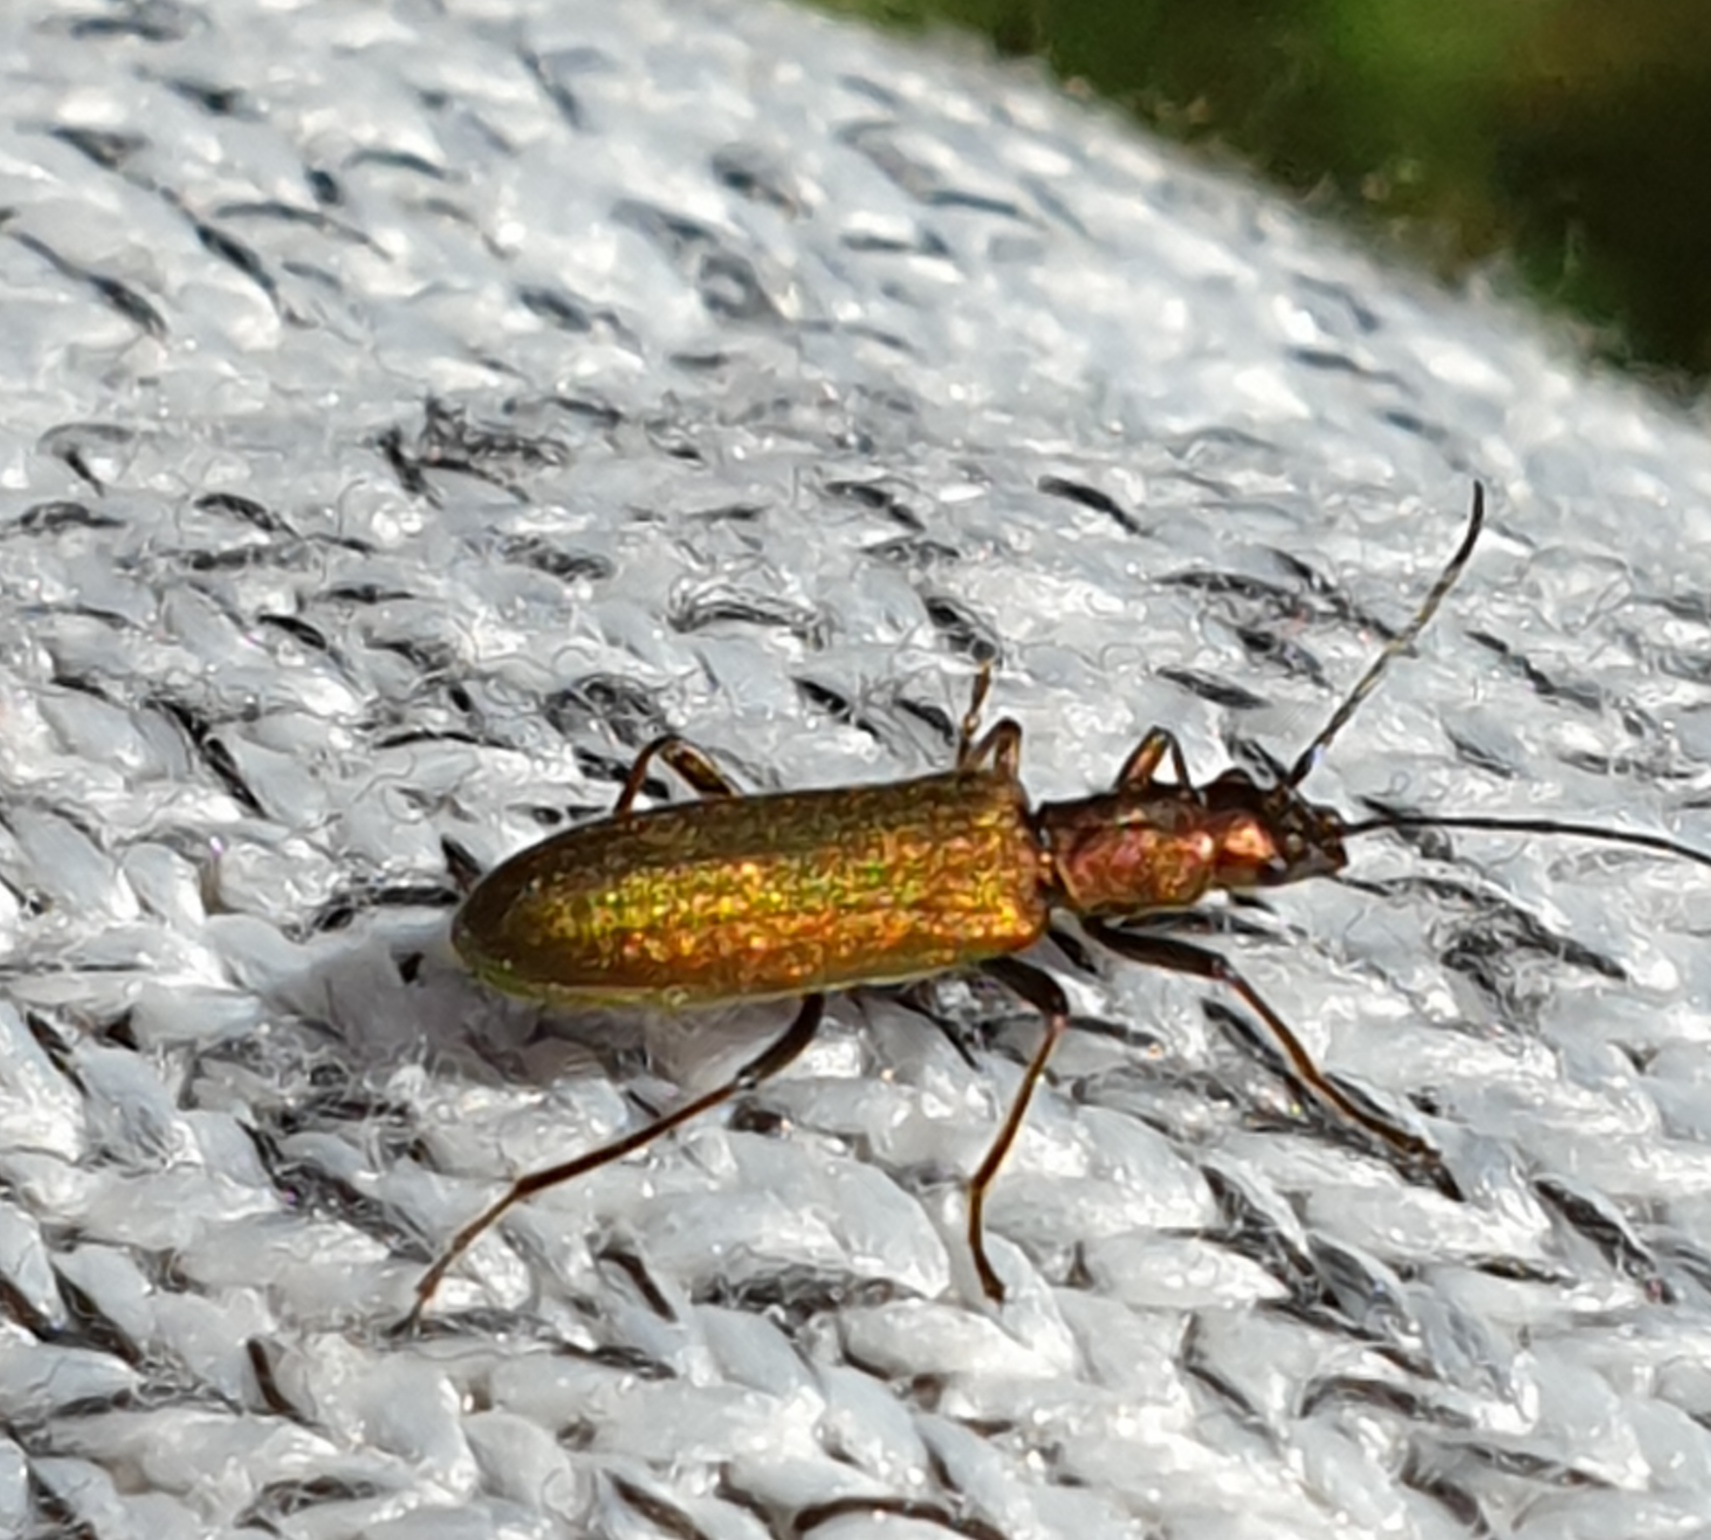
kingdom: Animalia
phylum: Arthropoda
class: Insecta
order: Coleoptera
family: Oedemeridae
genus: Chrysanthia
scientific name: Chrysanthia viridissima
